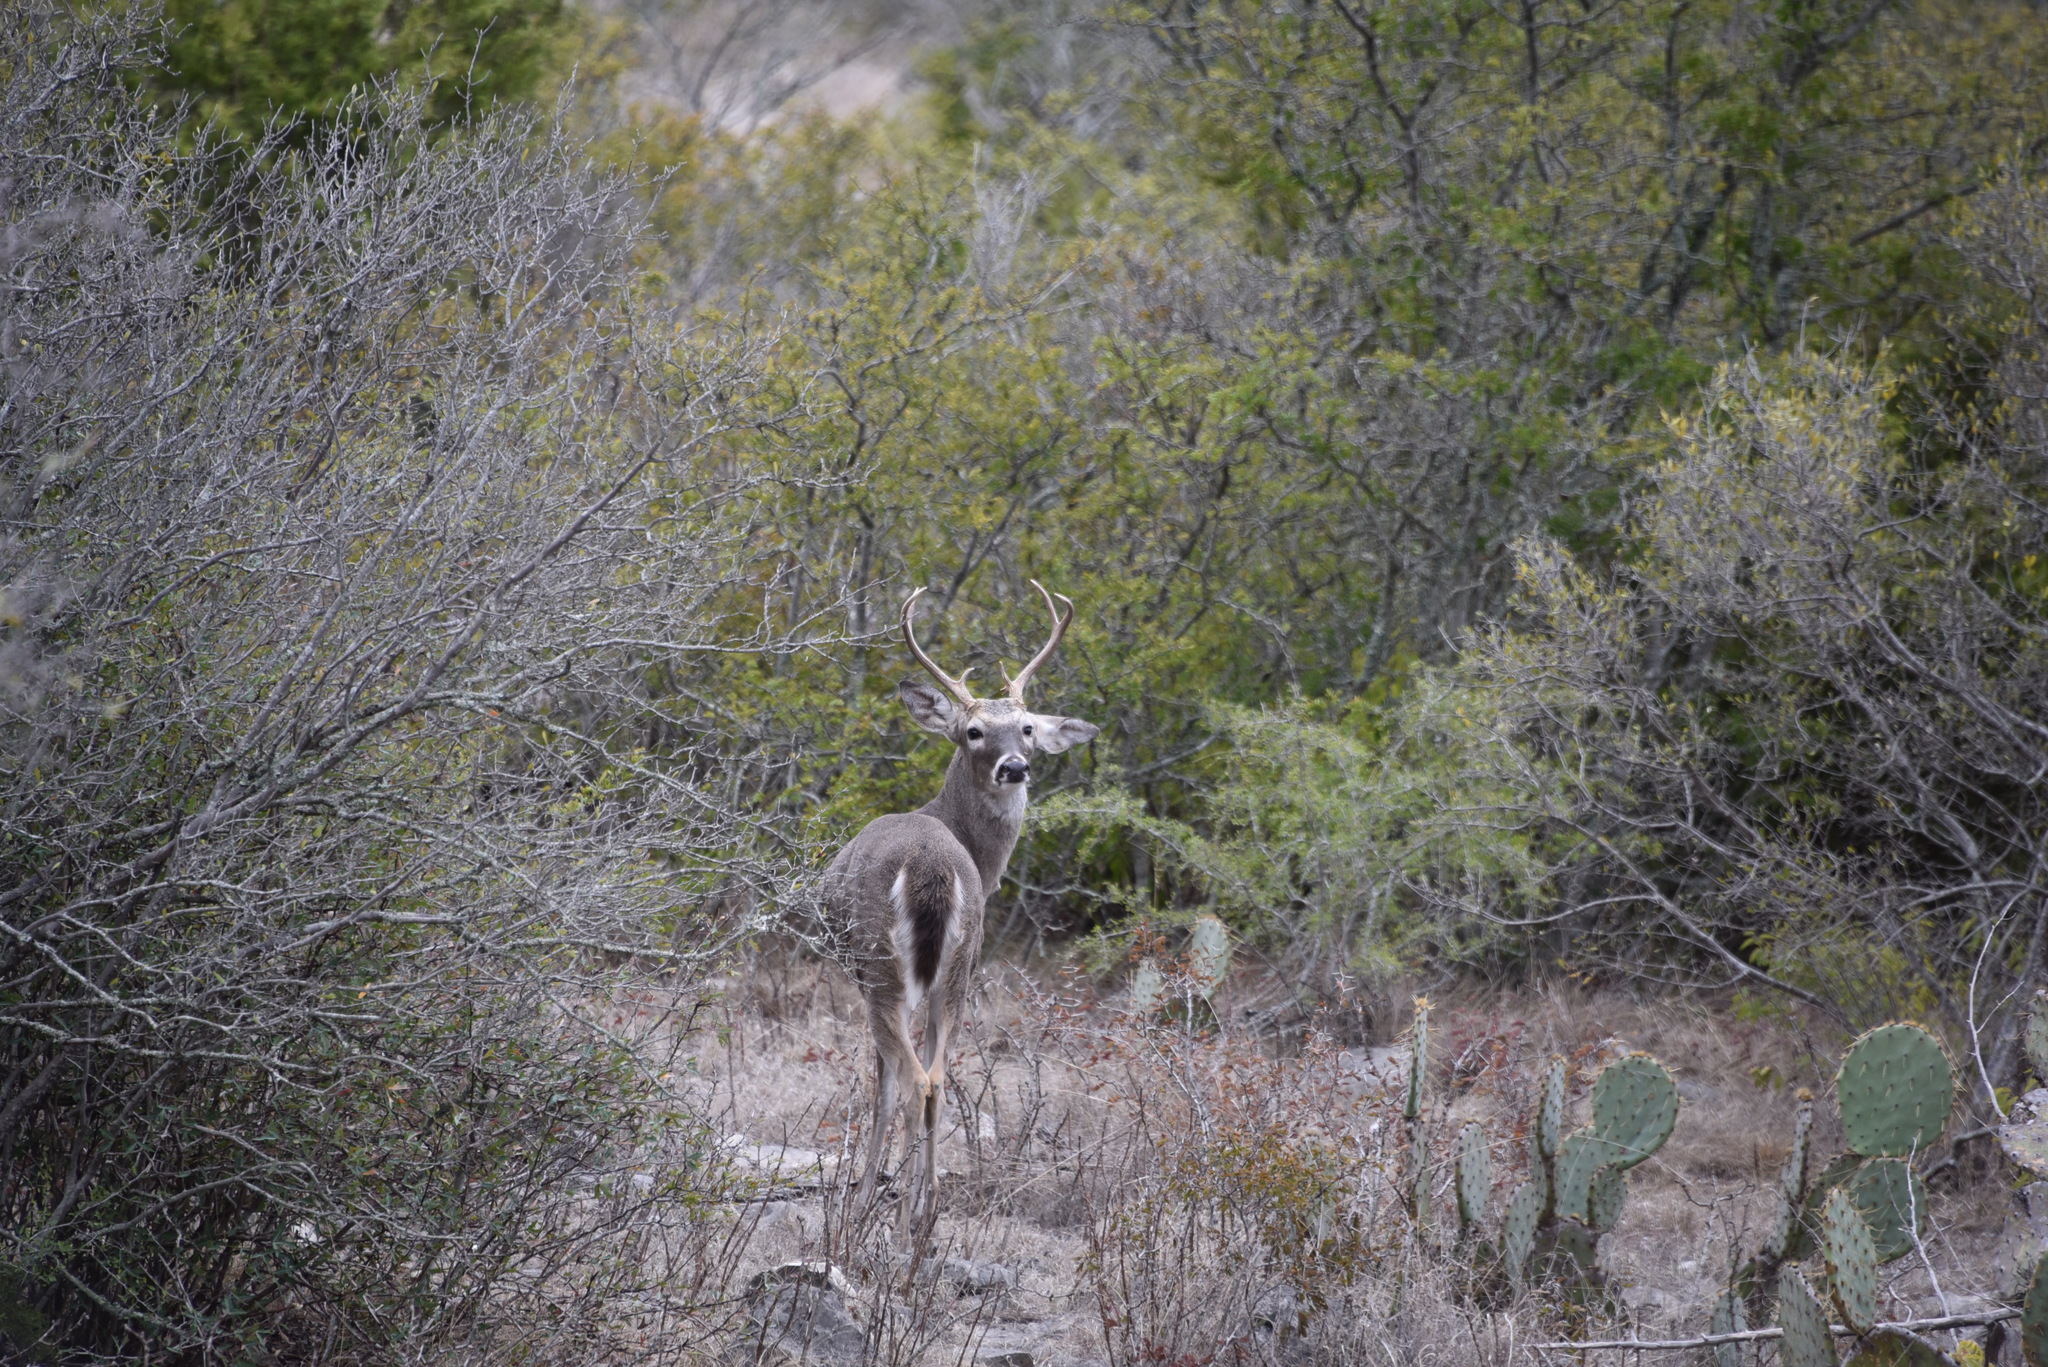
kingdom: Animalia
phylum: Chordata
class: Mammalia
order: Artiodactyla
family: Cervidae
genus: Odocoileus
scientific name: Odocoileus virginianus
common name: White-tailed deer
